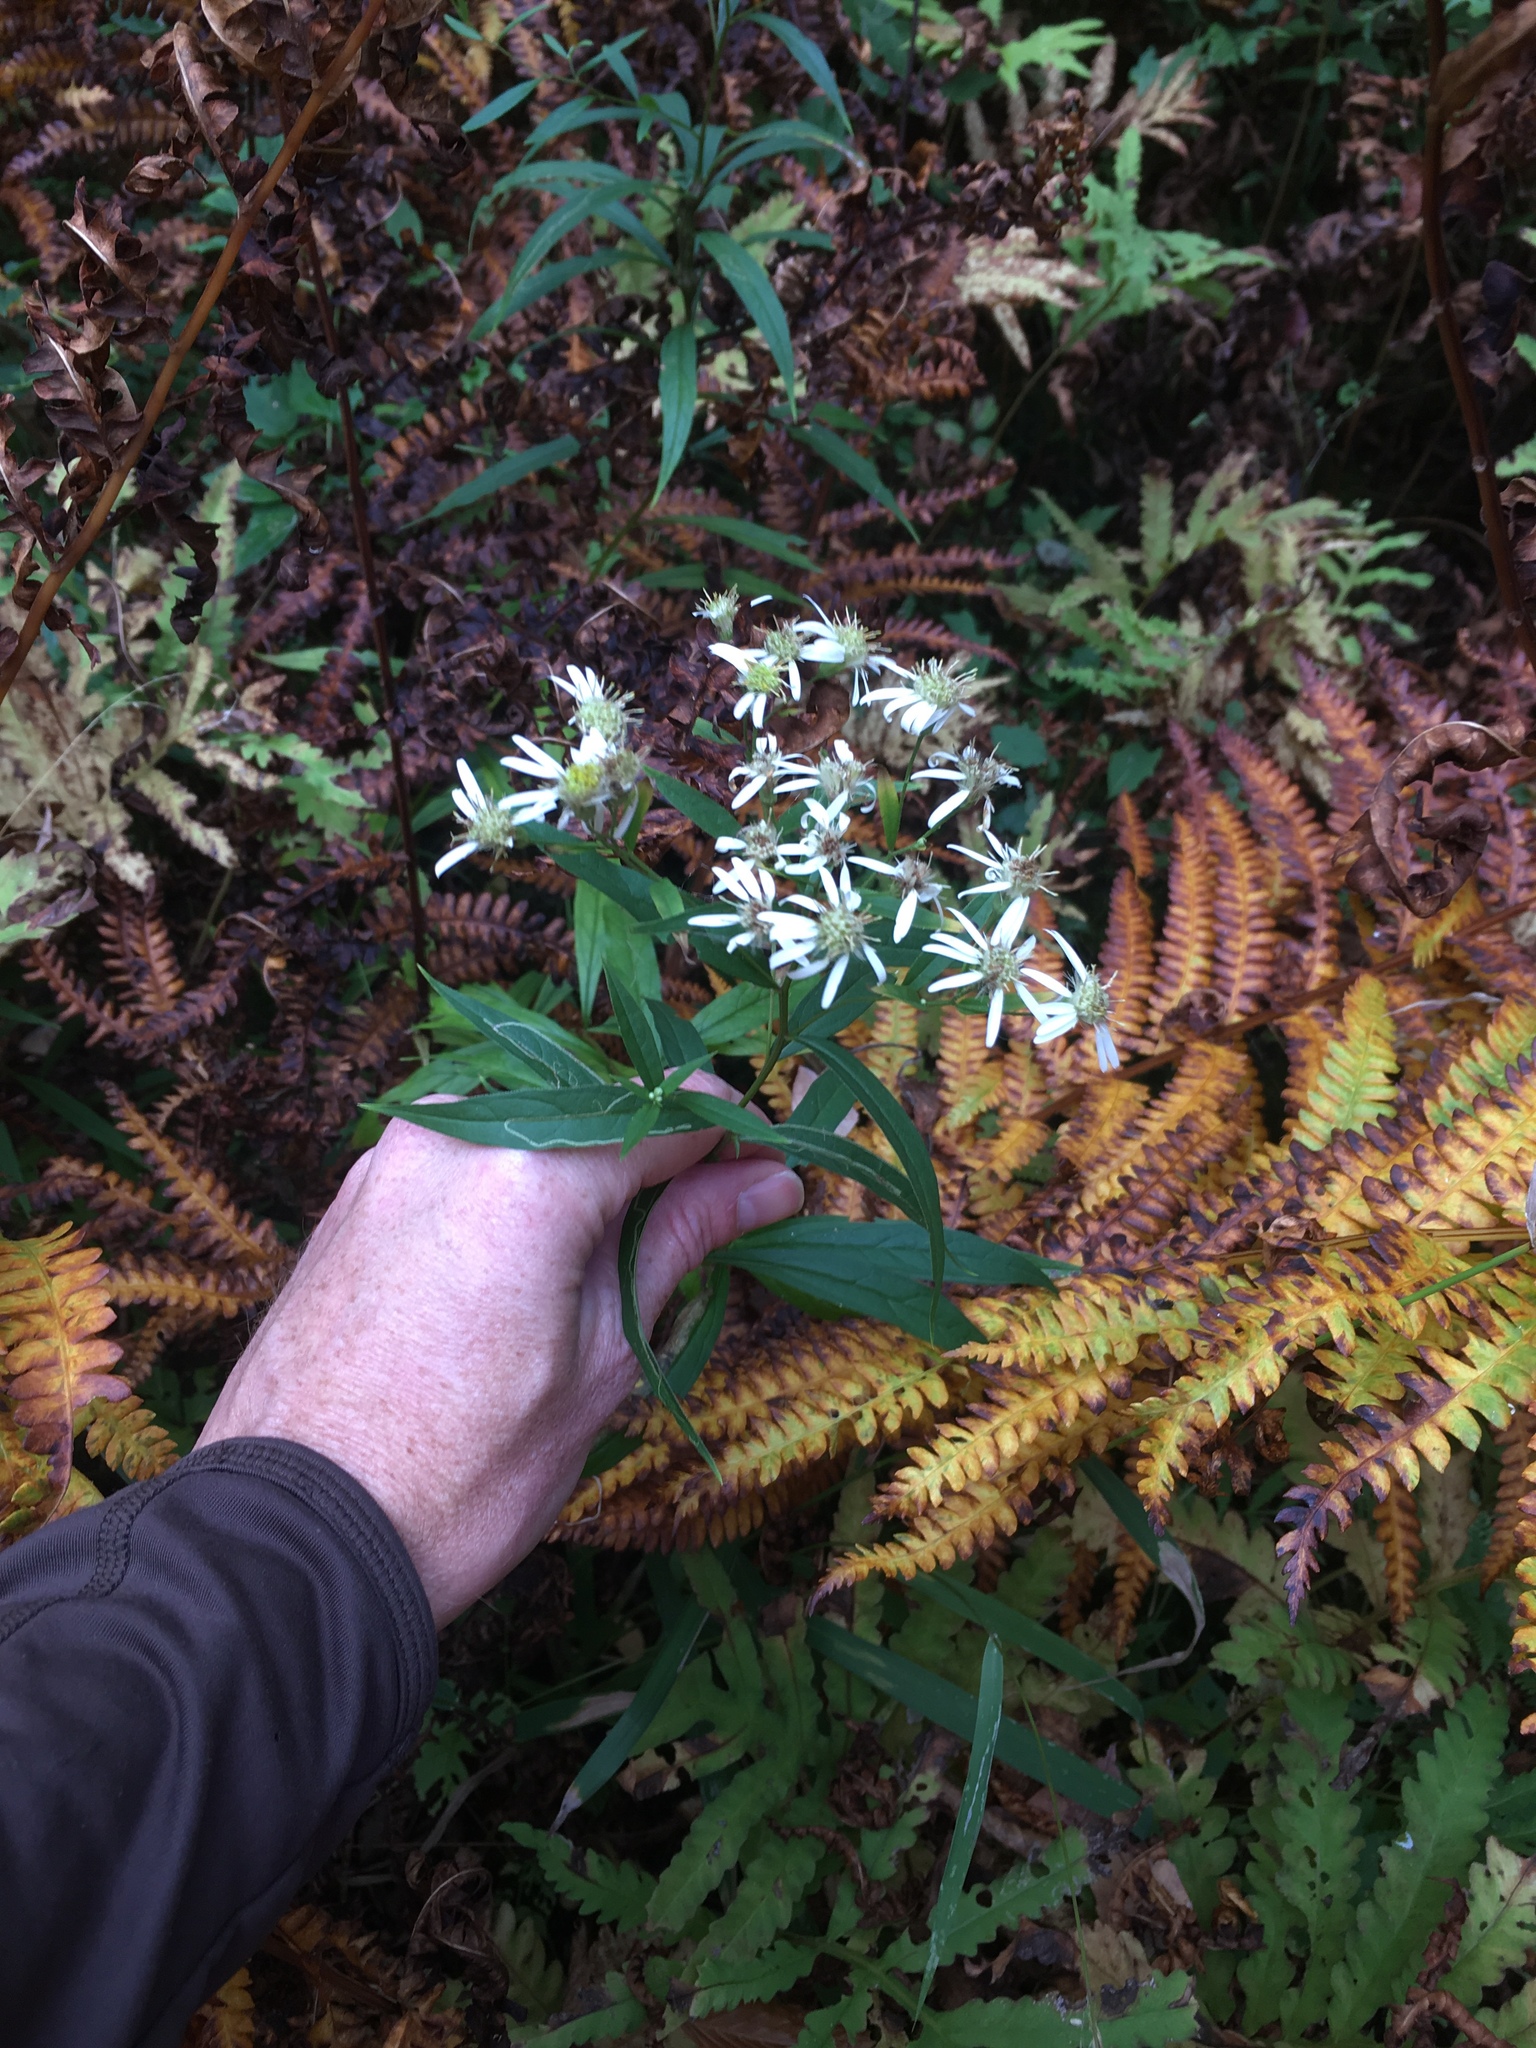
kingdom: Plantae
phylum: Tracheophyta
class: Magnoliopsida
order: Asterales
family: Asteraceae
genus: Doellingeria
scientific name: Doellingeria umbellata
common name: Flat-top white aster
